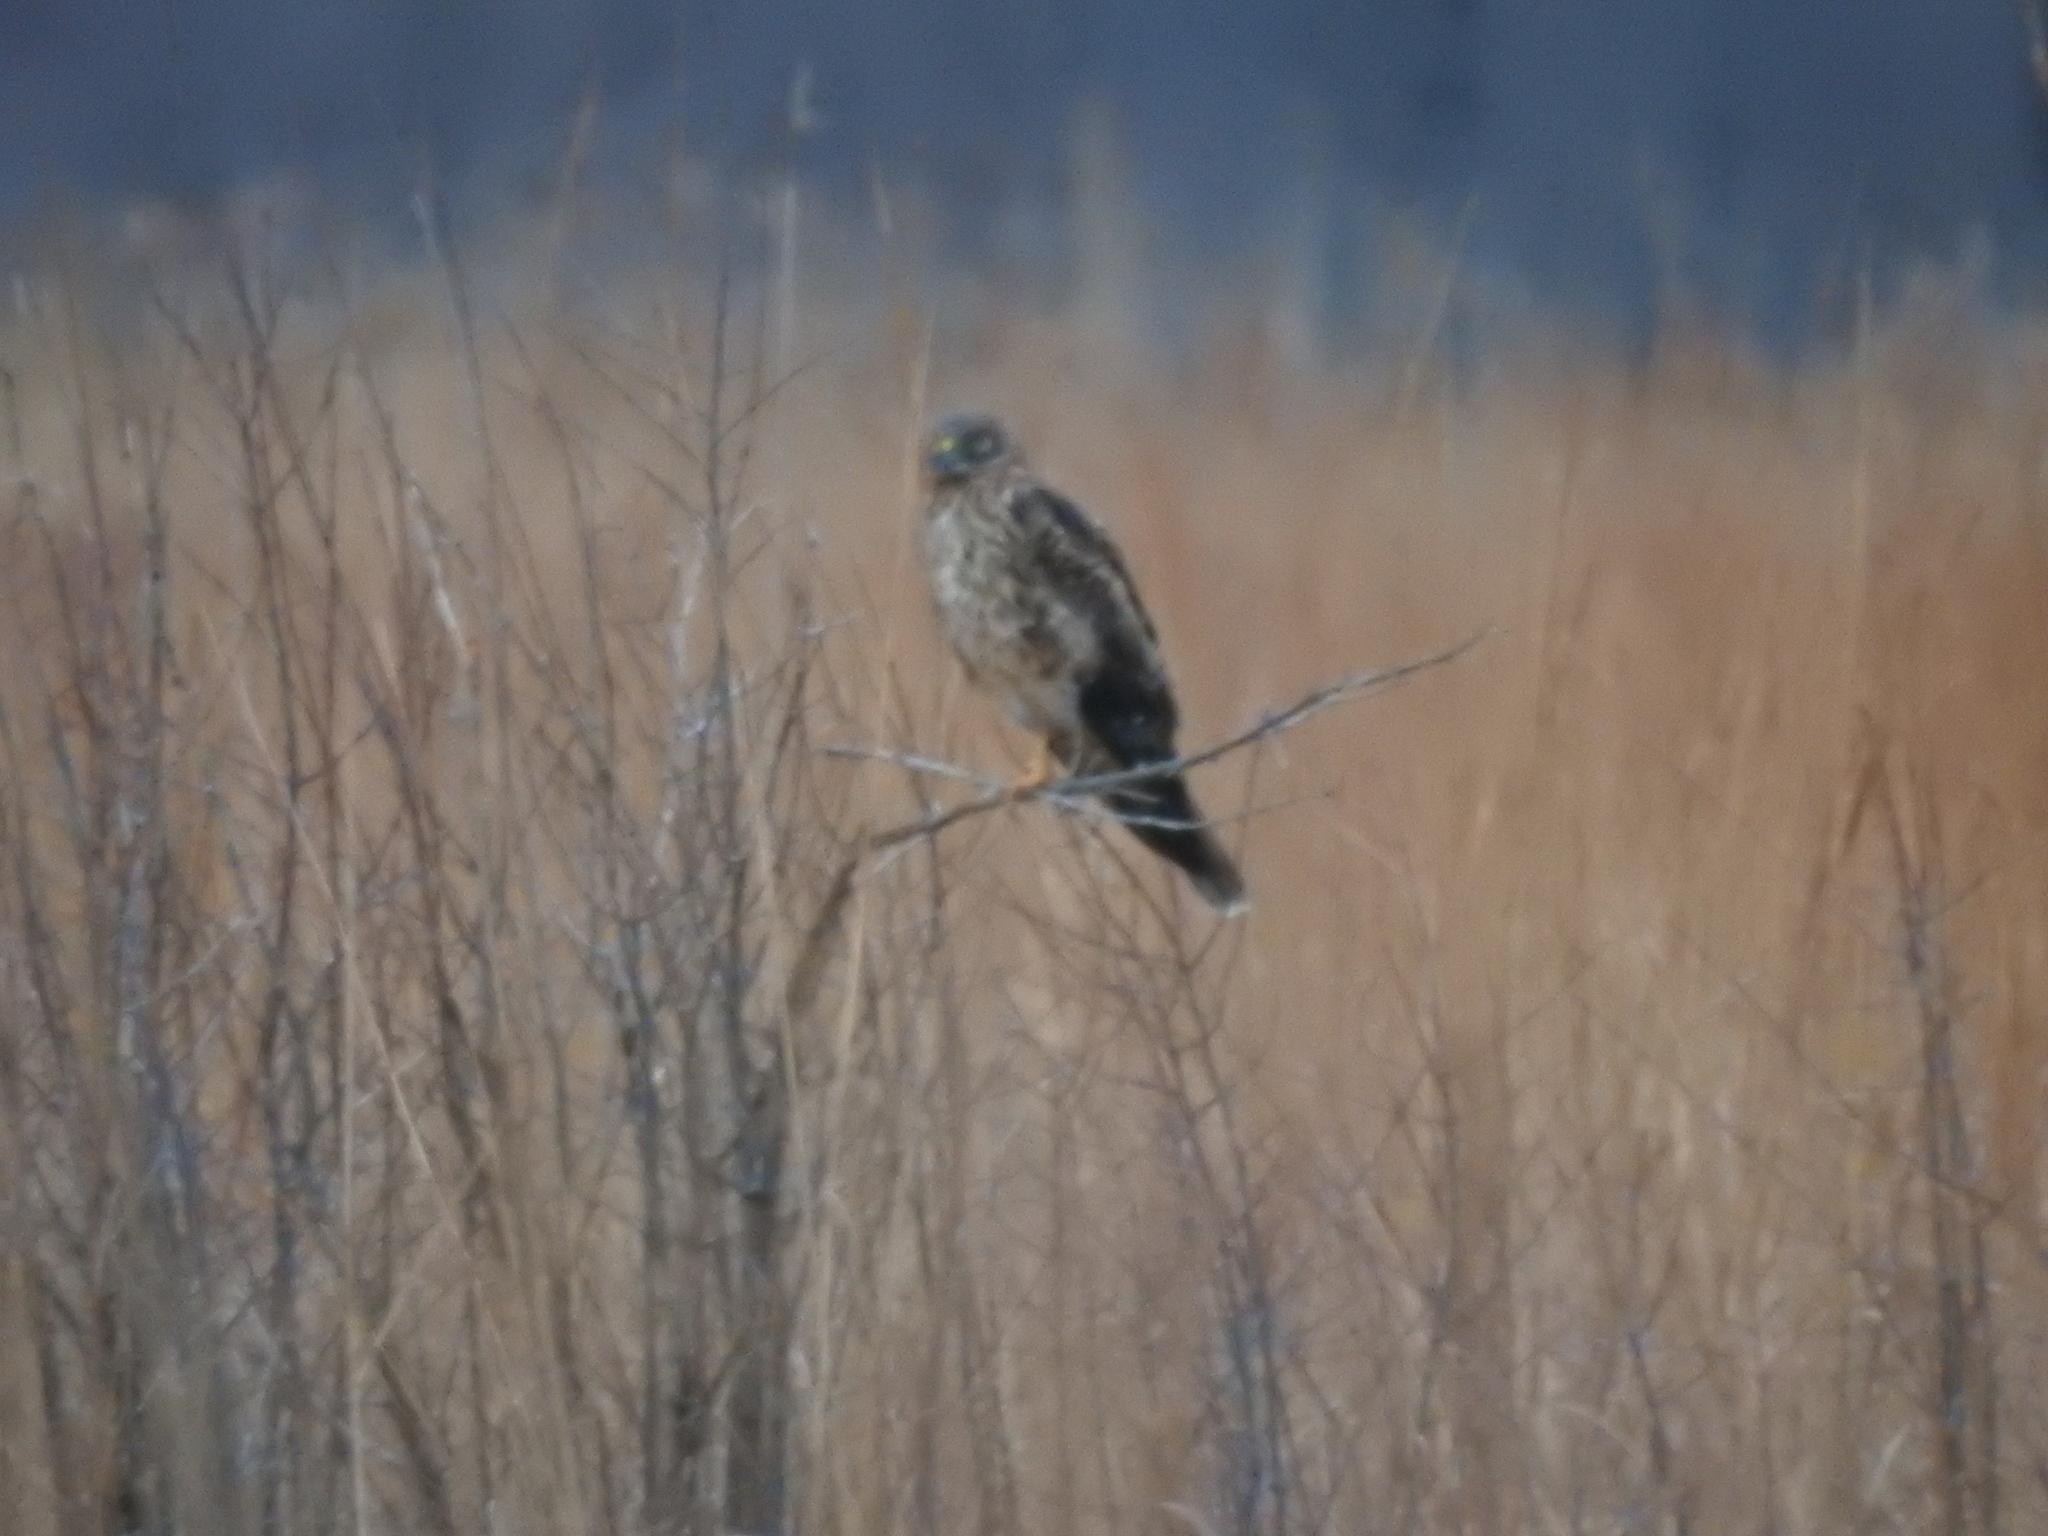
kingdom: Animalia
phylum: Chordata
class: Aves
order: Accipitriformes
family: Accipitridae
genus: Circus
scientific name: Circus cyaneus
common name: Hen harrier
